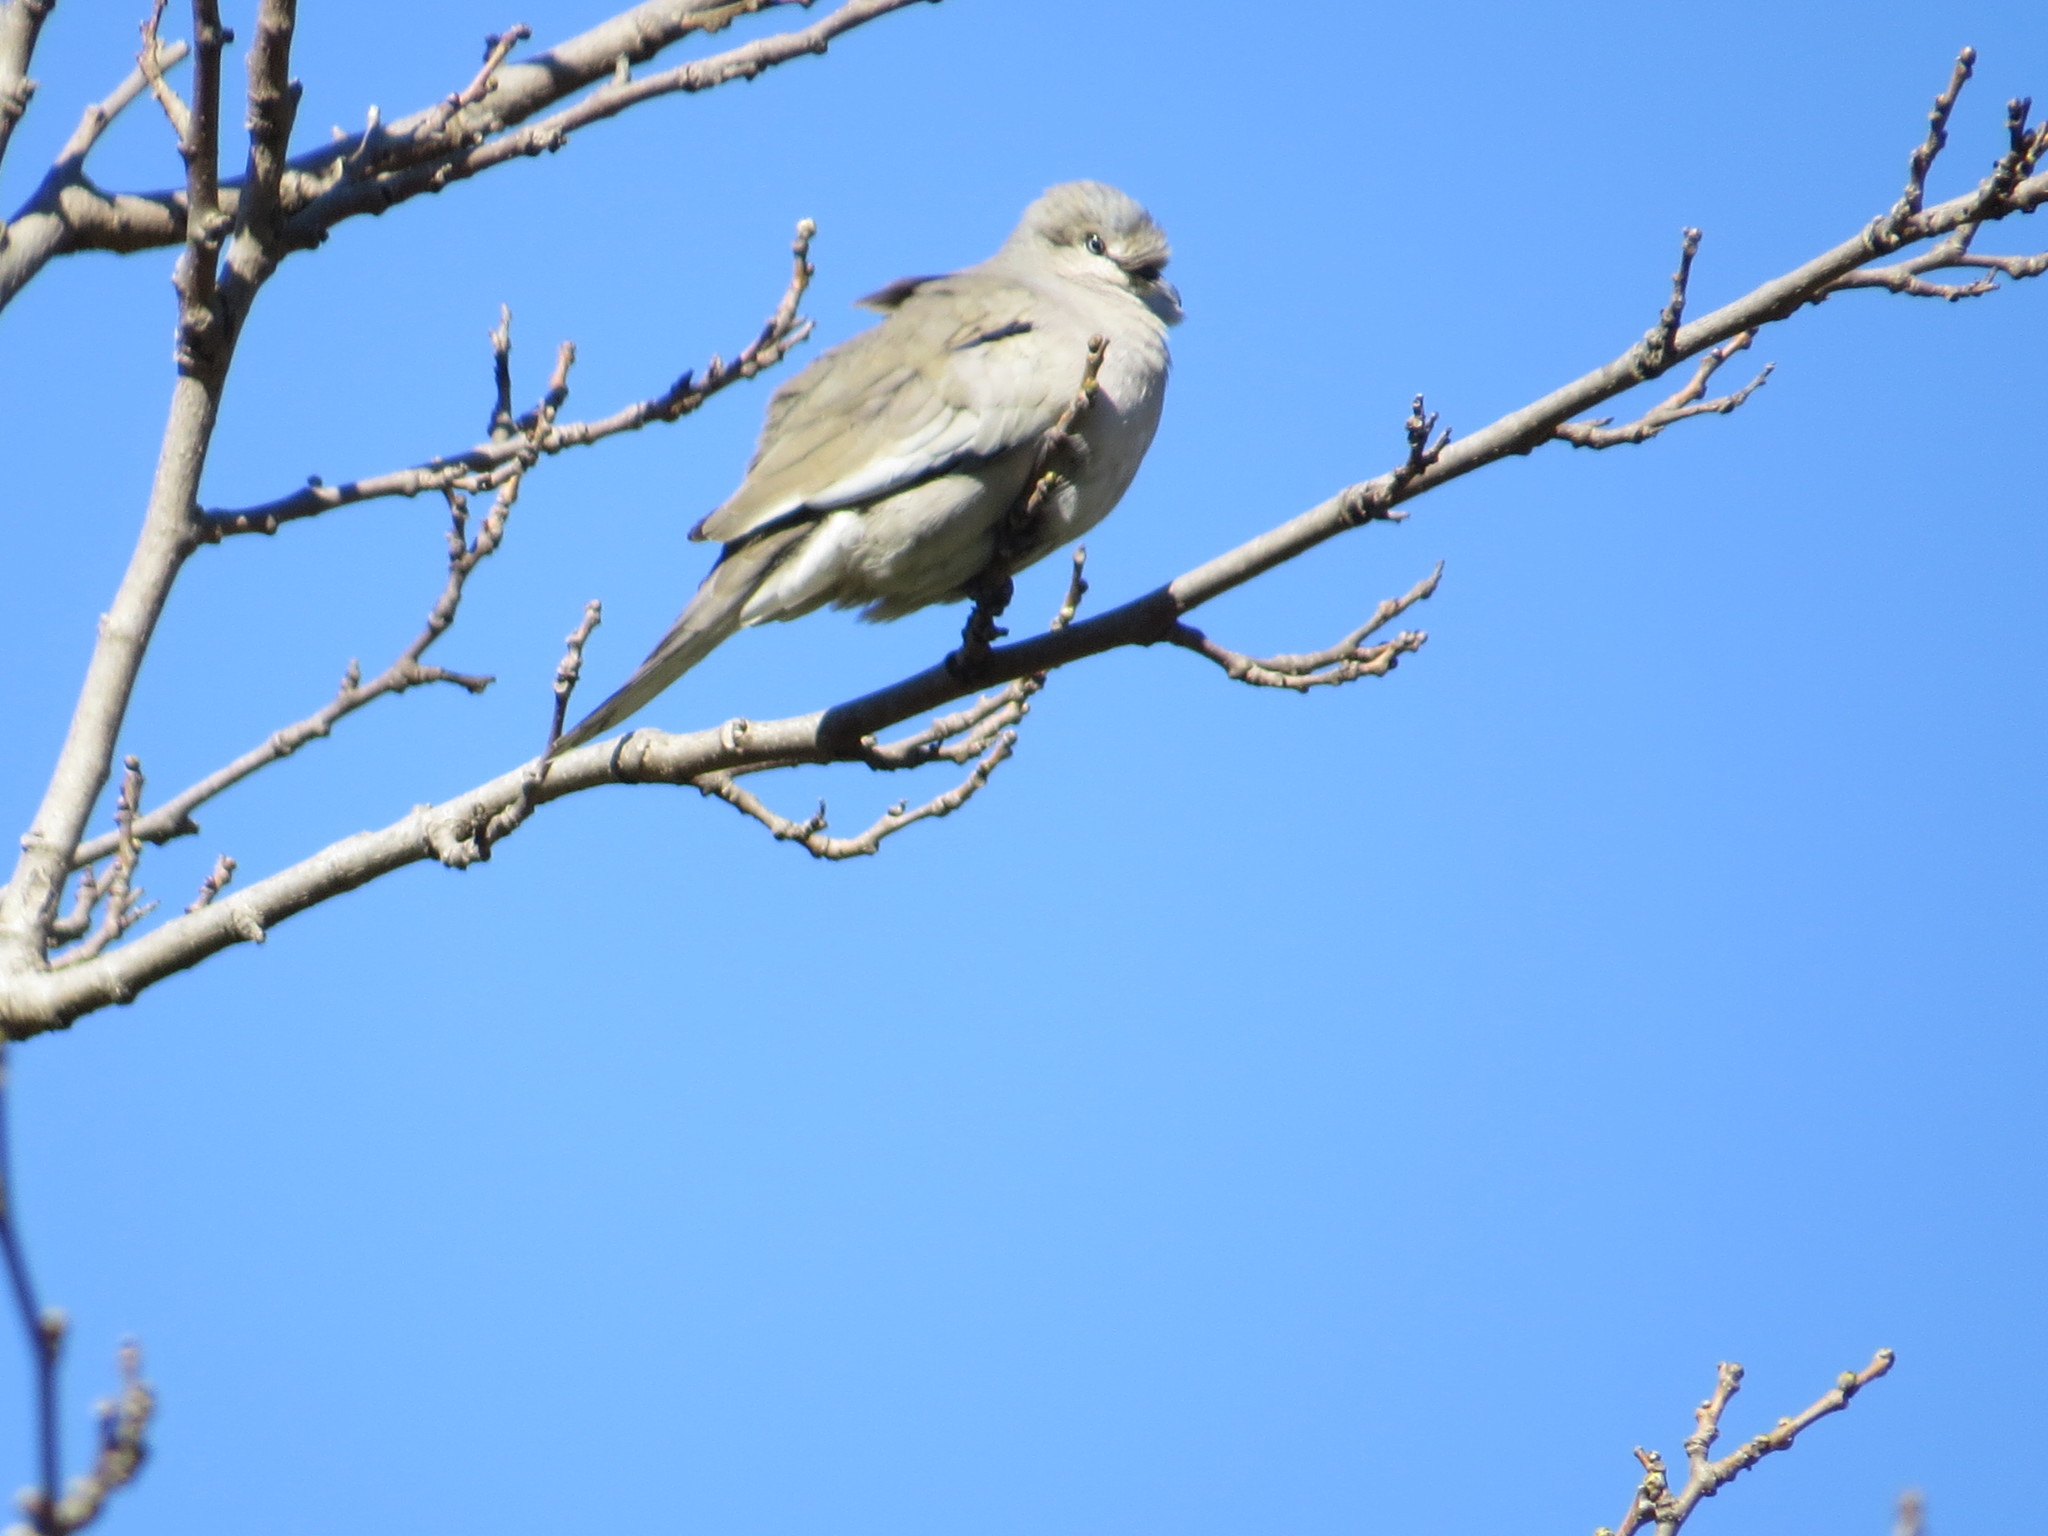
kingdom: Animalia
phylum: Chordata
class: Aves
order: Columbiformes
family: Columbidae
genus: Columbina
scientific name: Columbina picui
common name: Picui ground dove
